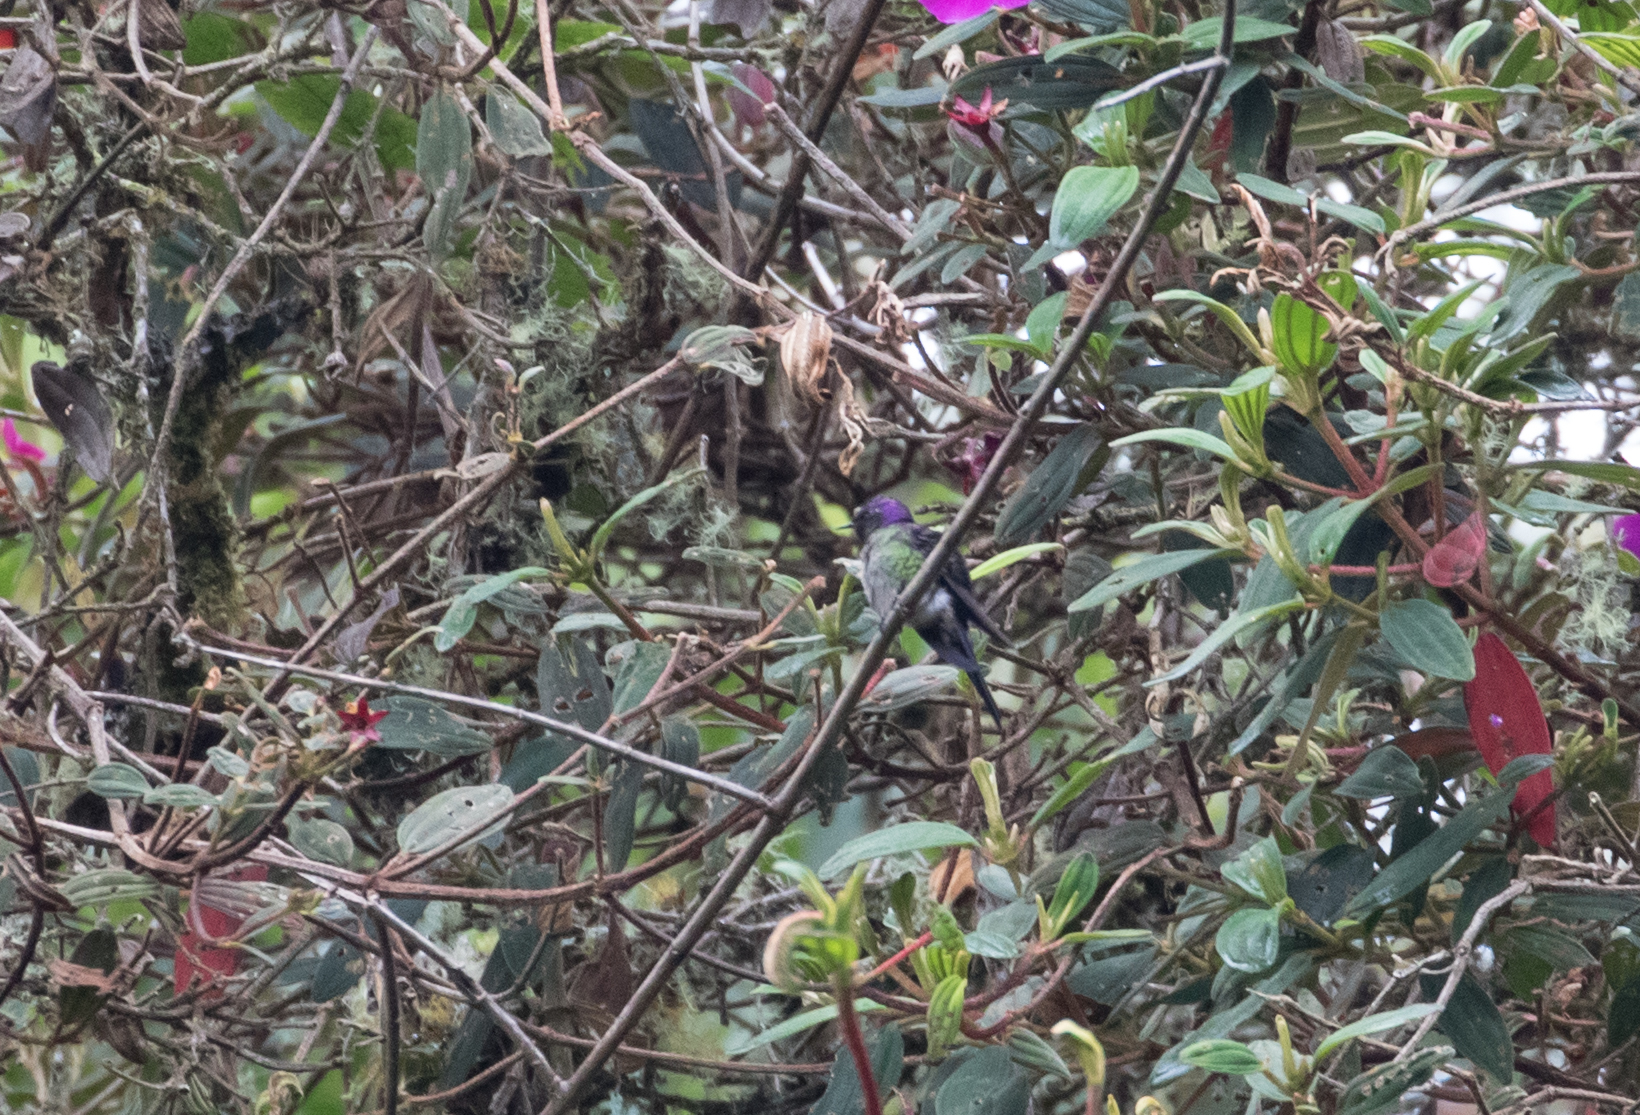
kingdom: Animalia
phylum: Chordata
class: Aves
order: Apodiformes
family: Trochilidae
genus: Ramphomicron
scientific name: Ramphomicron microrhynchum
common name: Purple-backed thornbill
